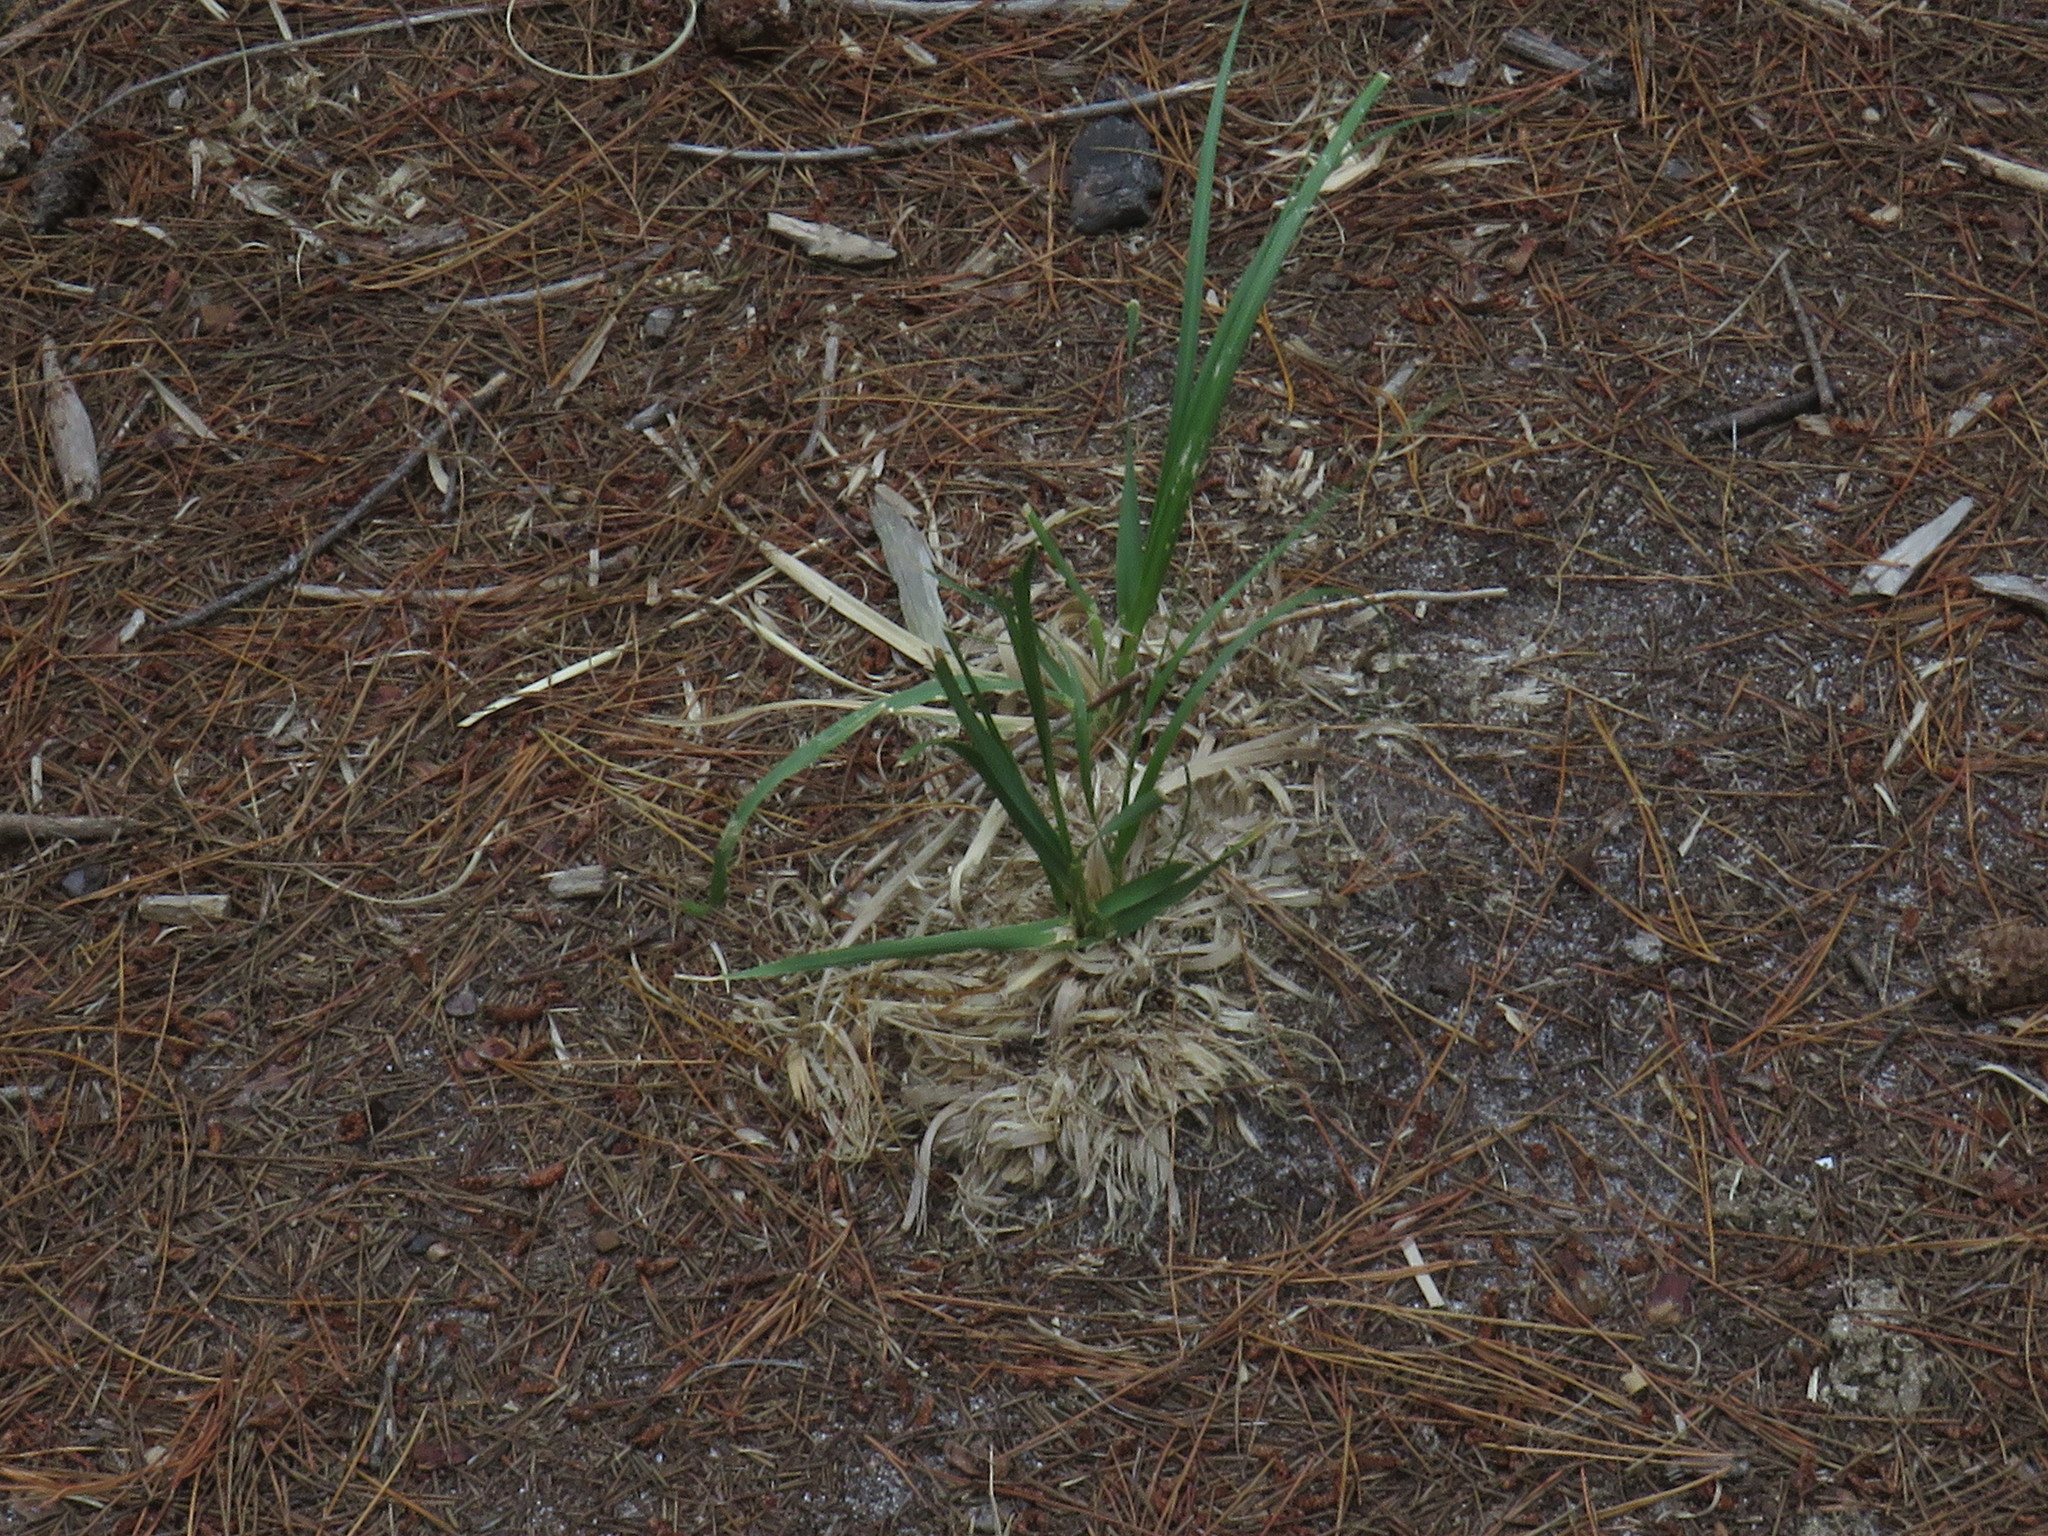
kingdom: Plantae
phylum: Tracheophyta
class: Liliopsida
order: Poales
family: Poaceae
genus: Cortaderia
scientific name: Cortaderia selloana
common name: Uruguayan pampas grass
